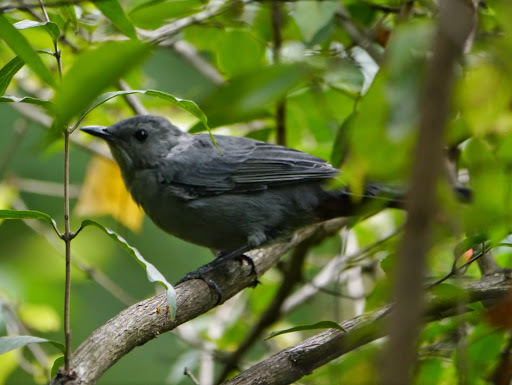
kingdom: Animalia
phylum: Chordata
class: Aves
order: Passeriformes
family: Mimidae
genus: Dumetella
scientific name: Dumetella carolinensis
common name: Gray catbird
